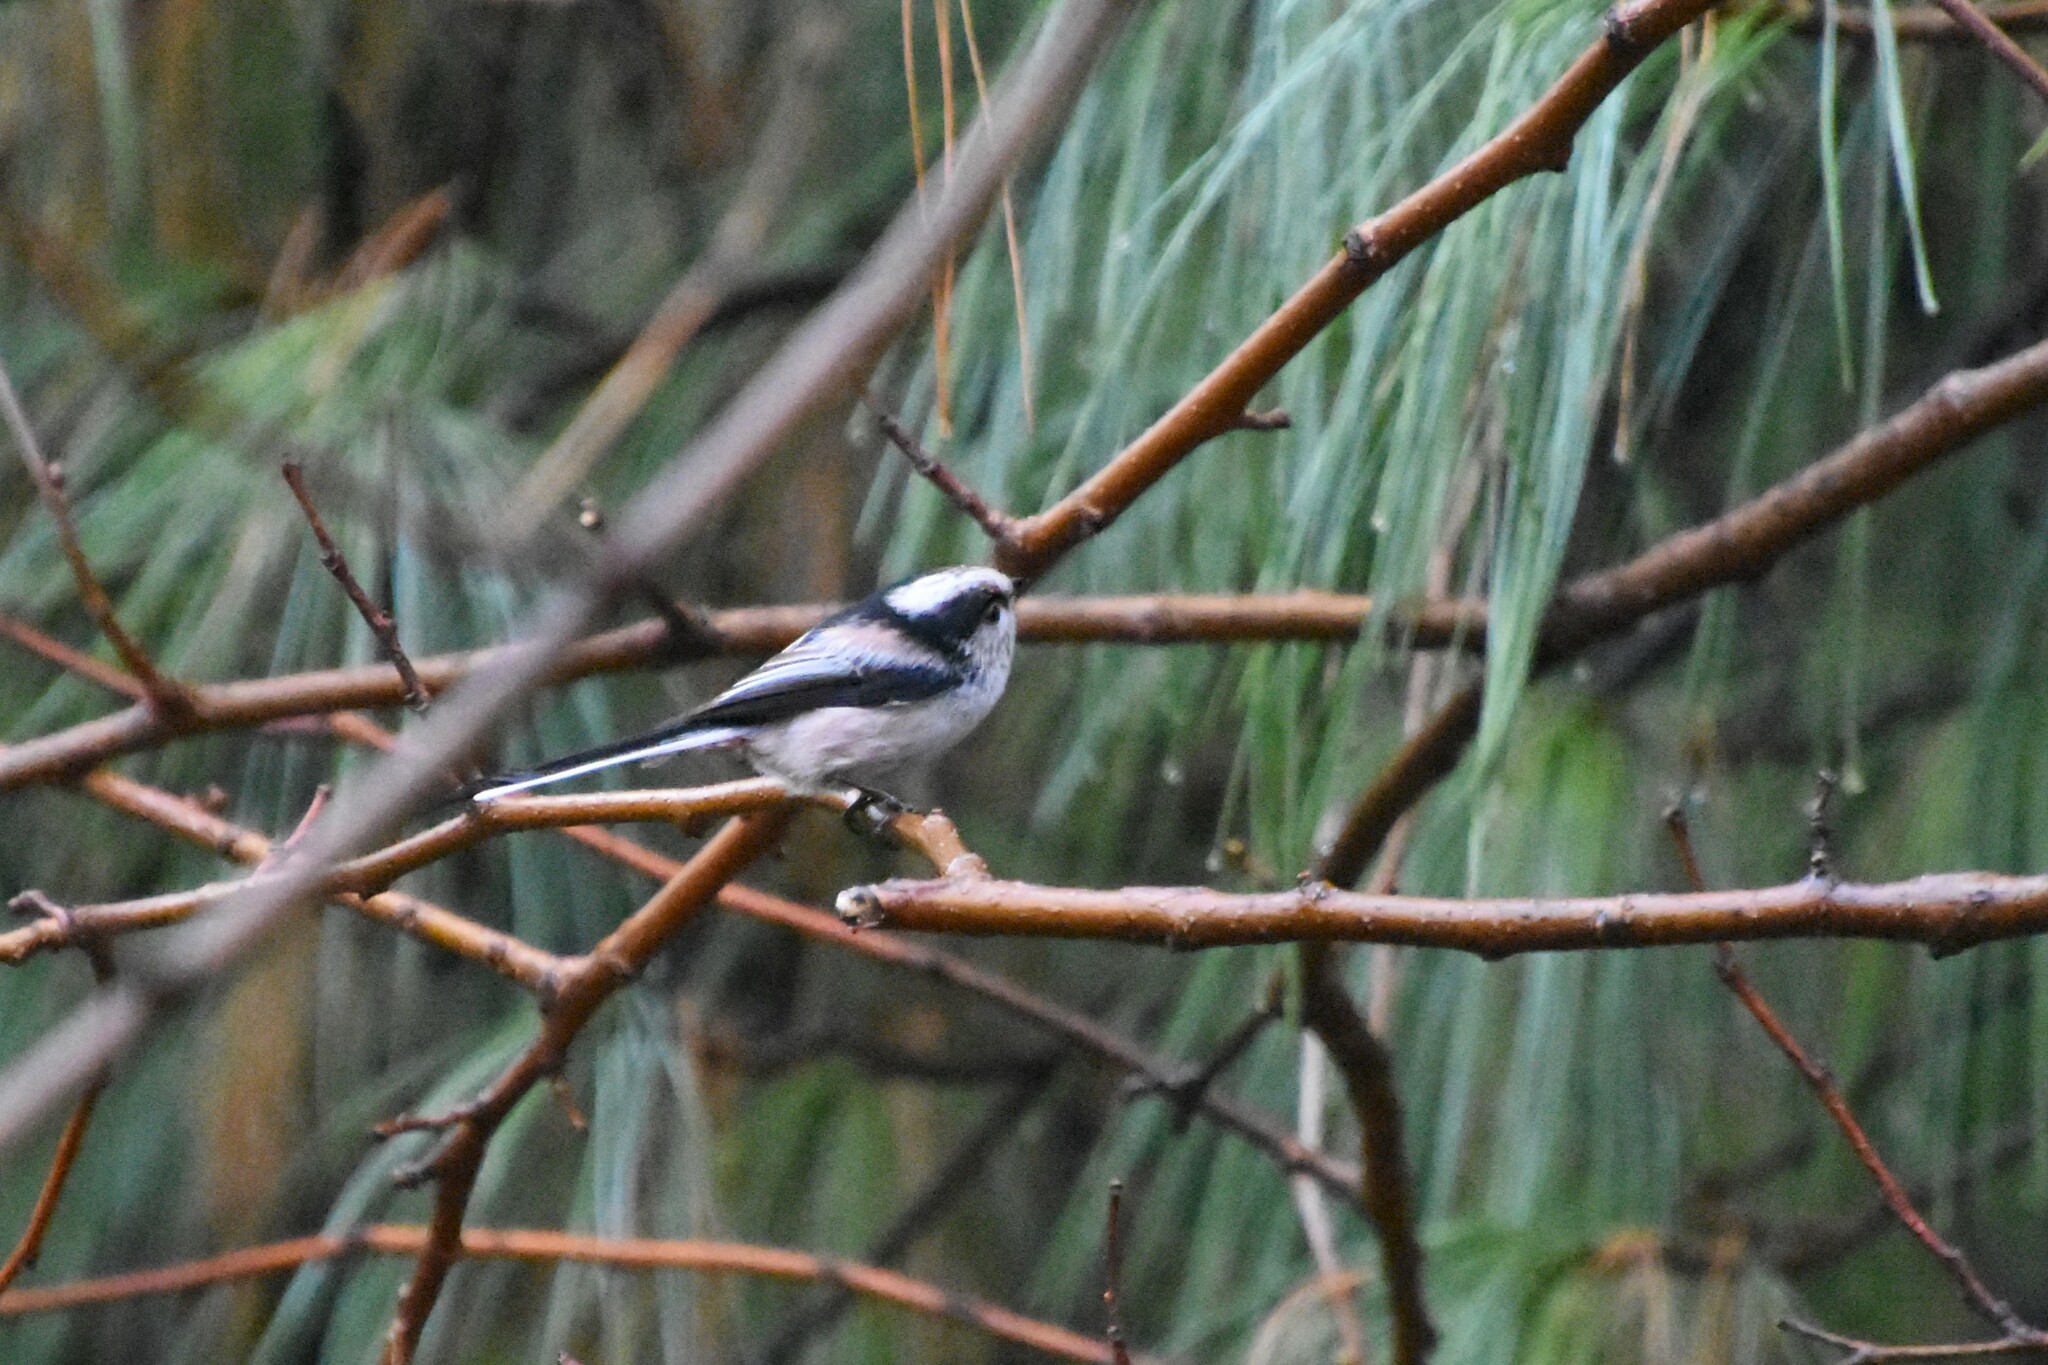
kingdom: Animalia
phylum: Chordata
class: Aves
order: Passeriformes
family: Aegithalidae
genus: Aegithalos
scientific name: Aegithalos caudatus
